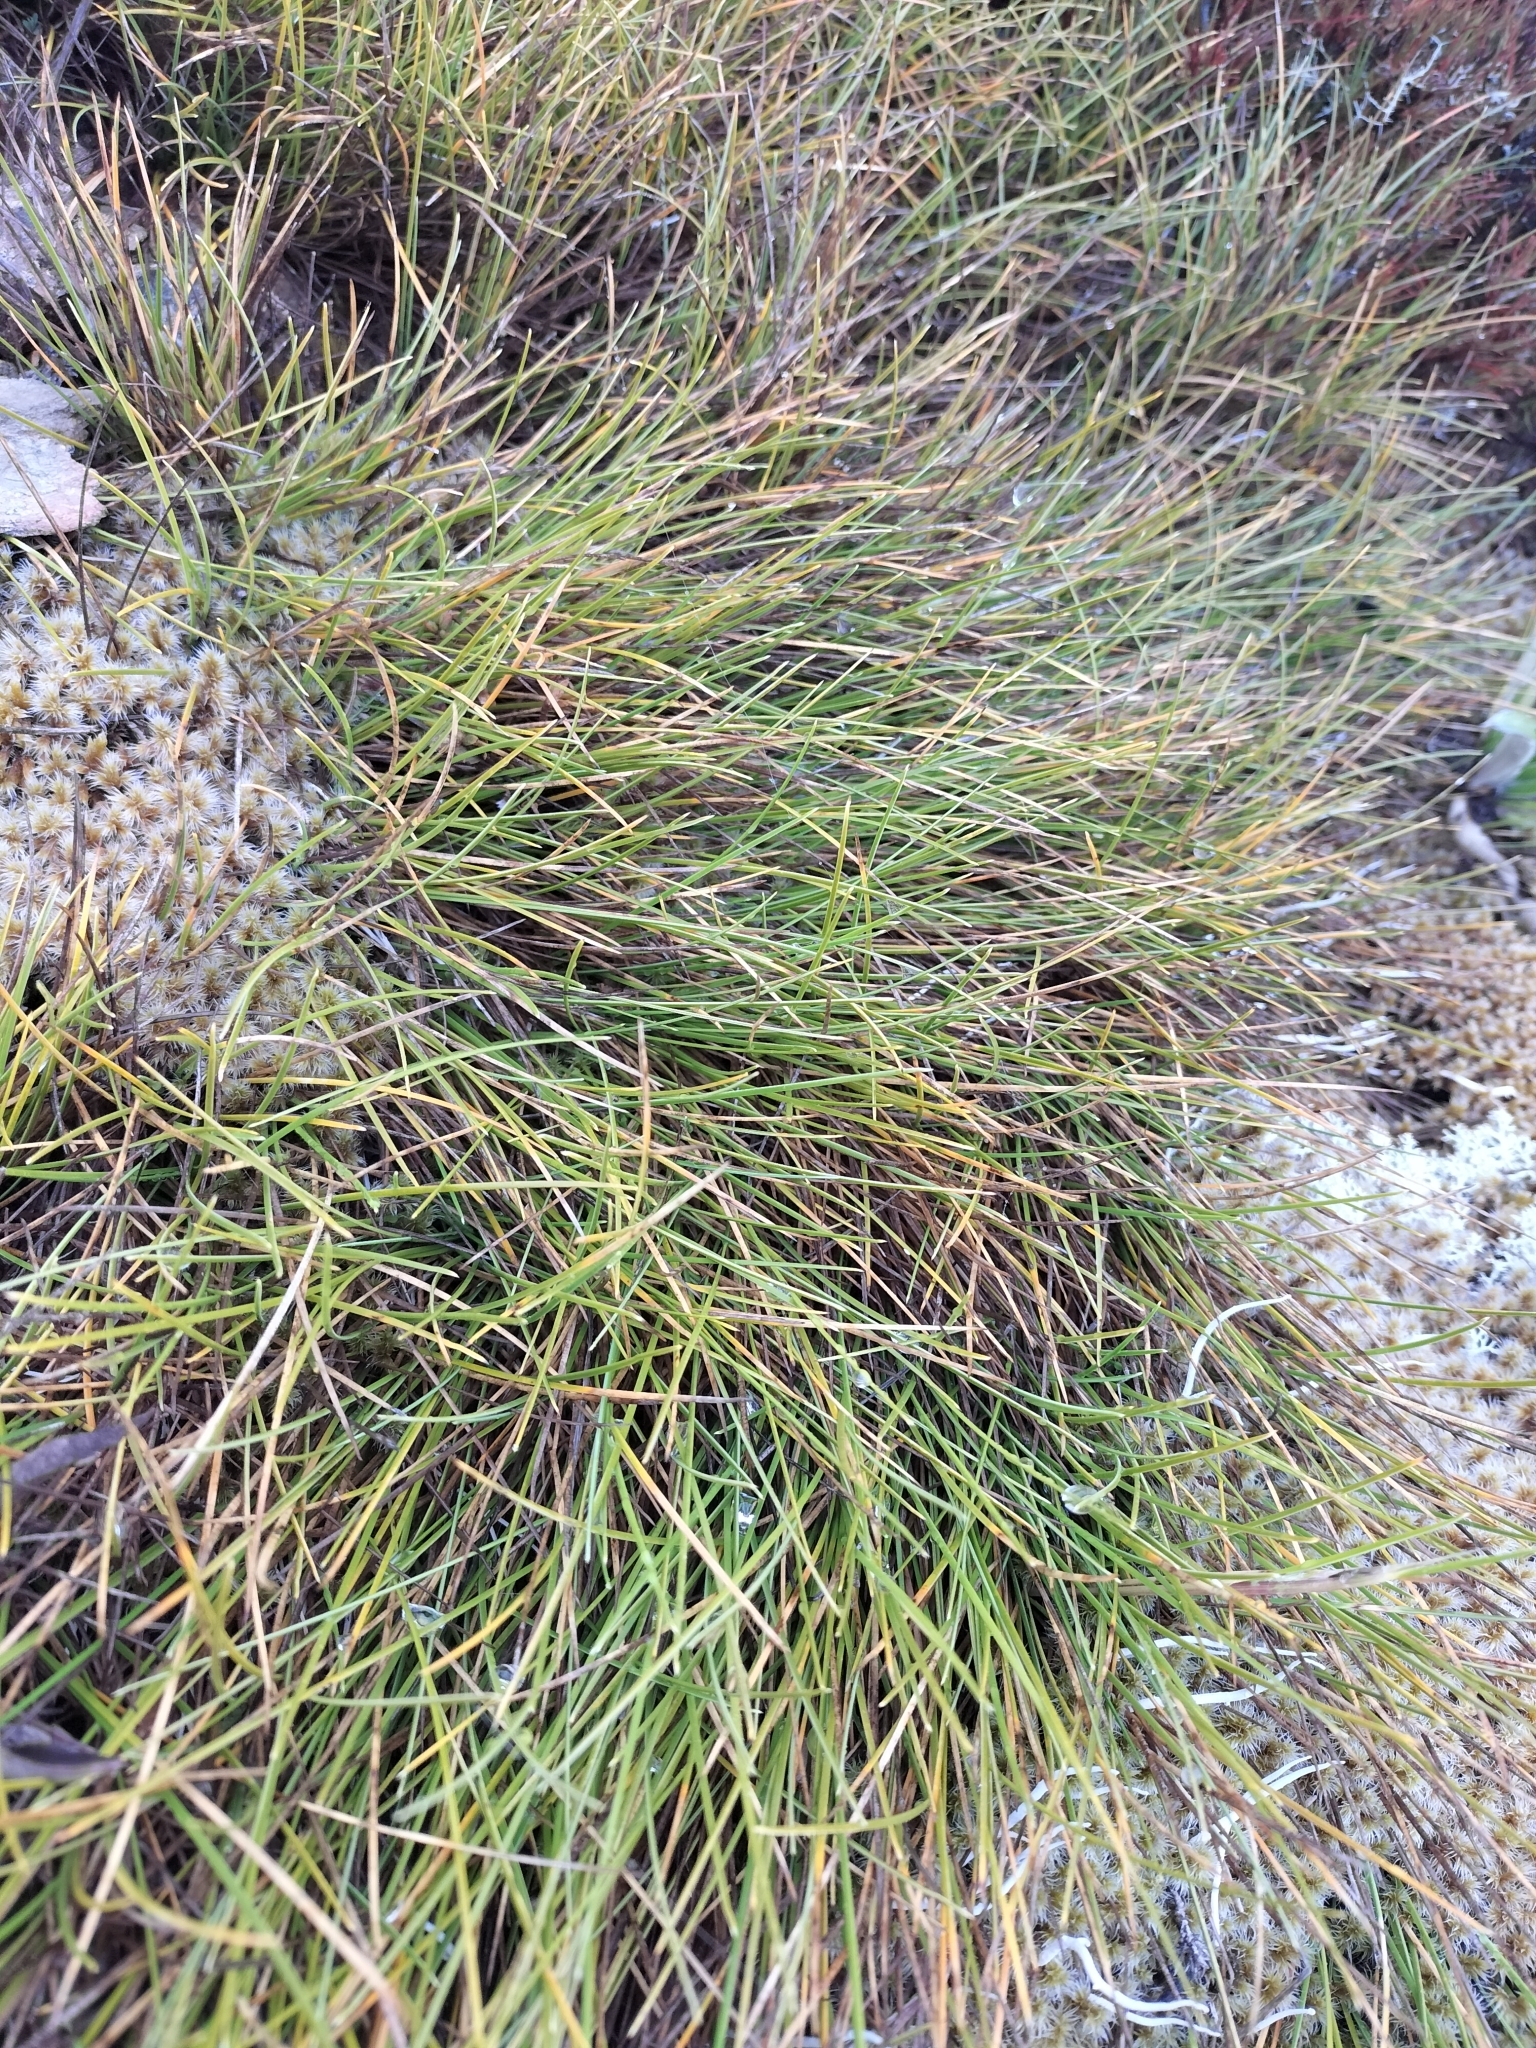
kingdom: Plantae
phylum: Tracheophyta
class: Liliopsida
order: Poales
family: Poaceae
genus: Chionochloa
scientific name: Chionochloa australis
